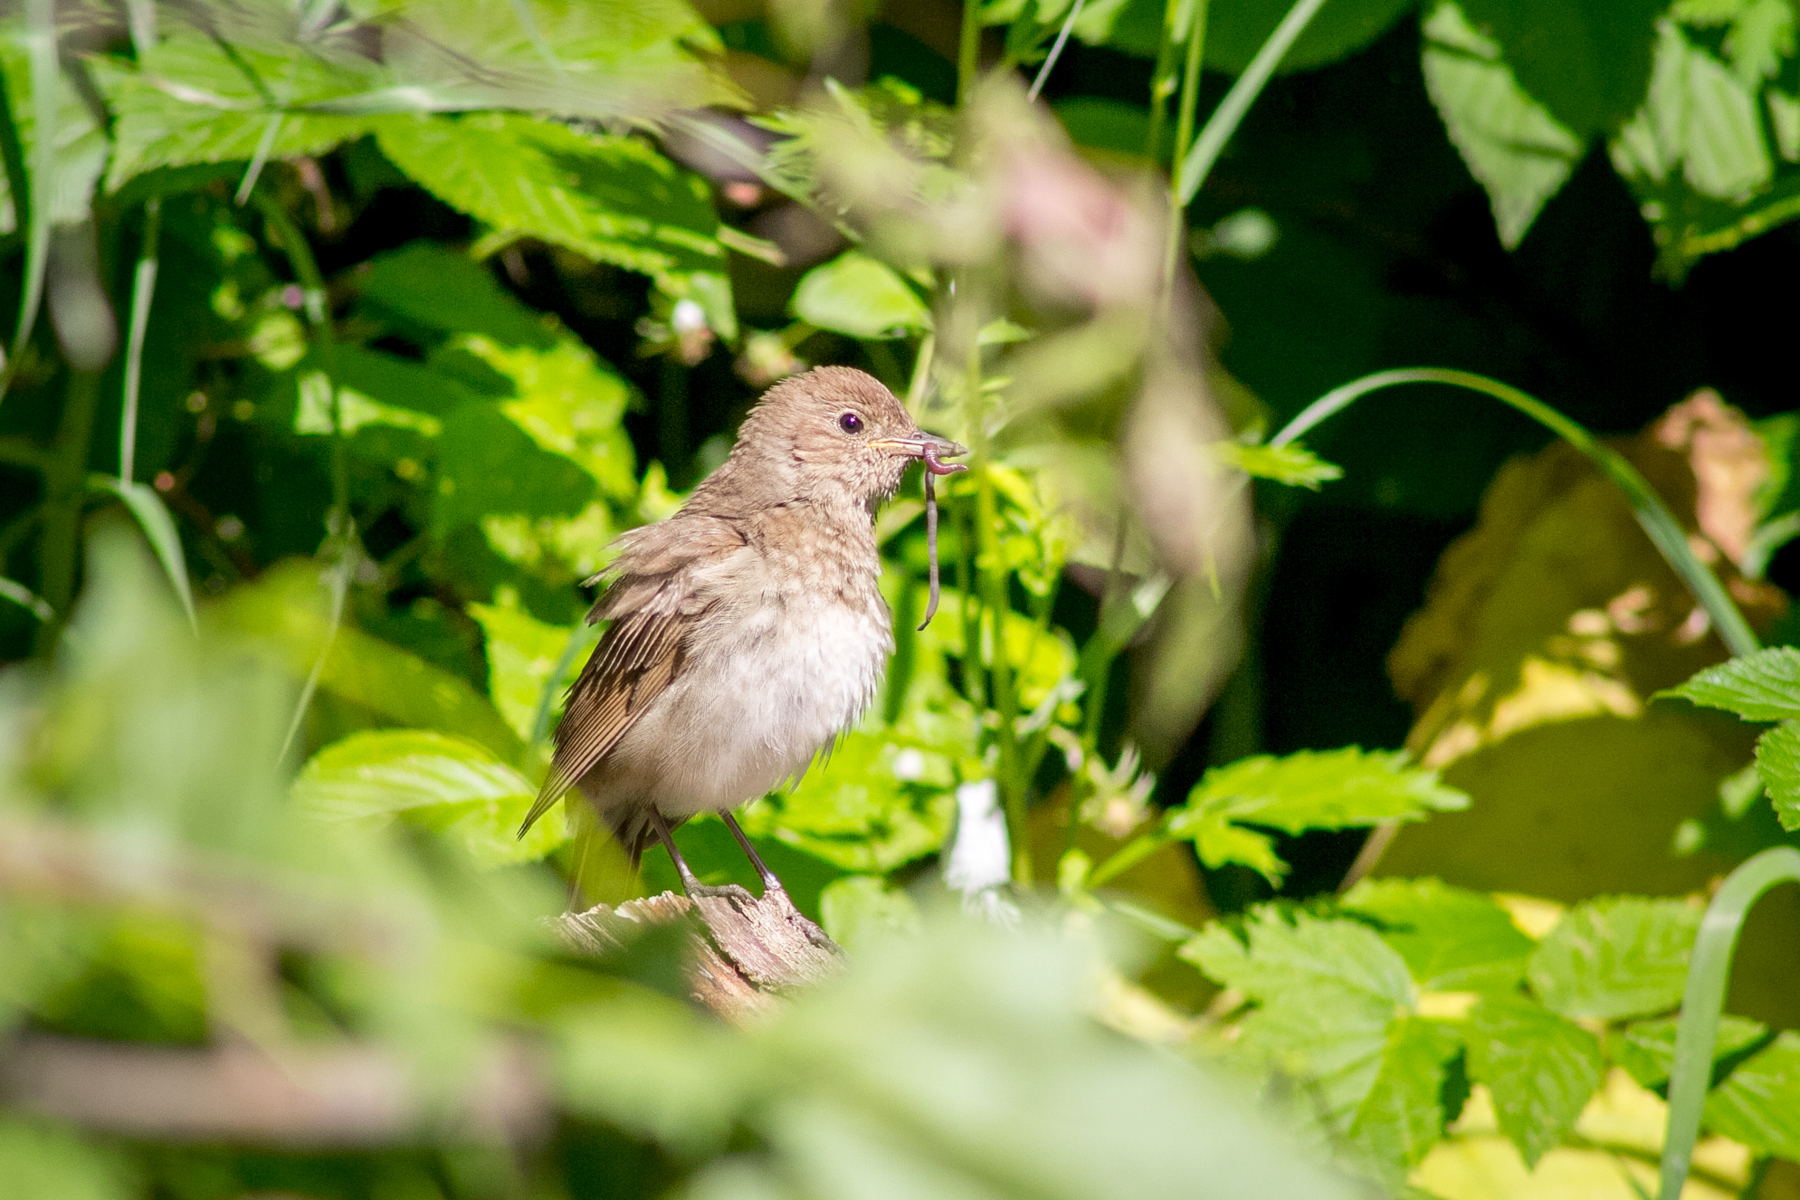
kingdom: Animalia
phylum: Chordata
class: Aves
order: Passeriformes
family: Muscicapidae
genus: Luscinia
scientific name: Luscinia luscinia
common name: Thrush nightingale
